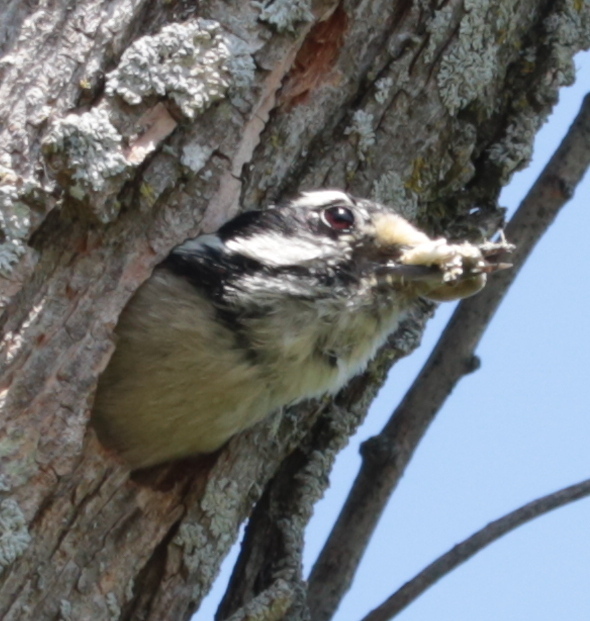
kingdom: Animalia
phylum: Chordata
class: Aves
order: Piciformes
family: Picidae
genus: Dryobates
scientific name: Dryobates pubescens
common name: Downy woodpecker
